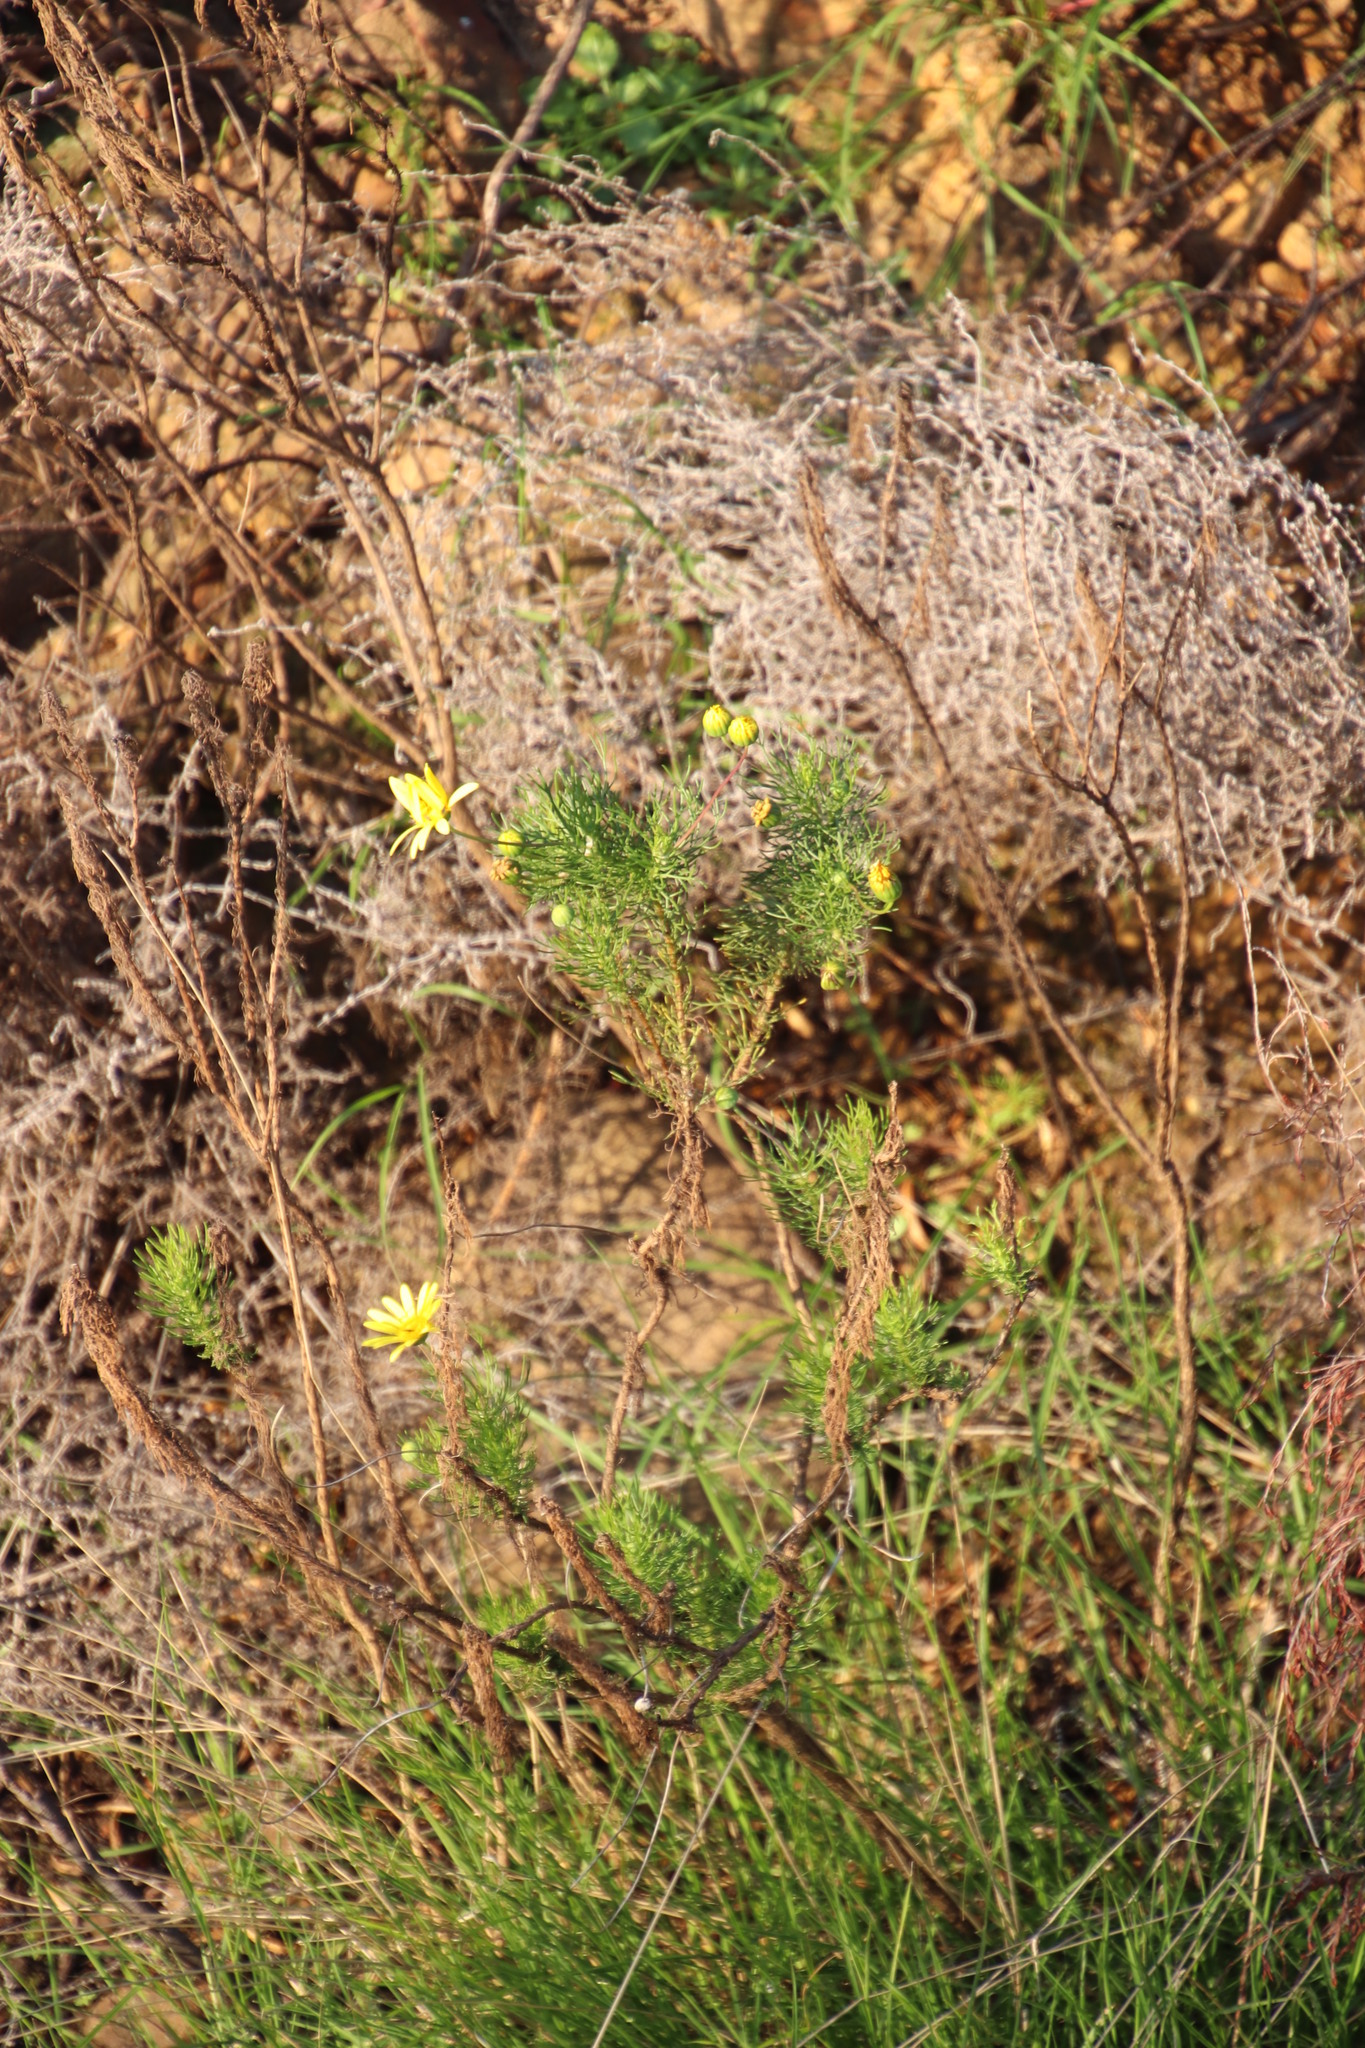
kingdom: Plantae
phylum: Tracheophyta
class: Magnoliopsida
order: Asterales
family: Asteraceae
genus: Euryops
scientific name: Euryops abrotanifolius
